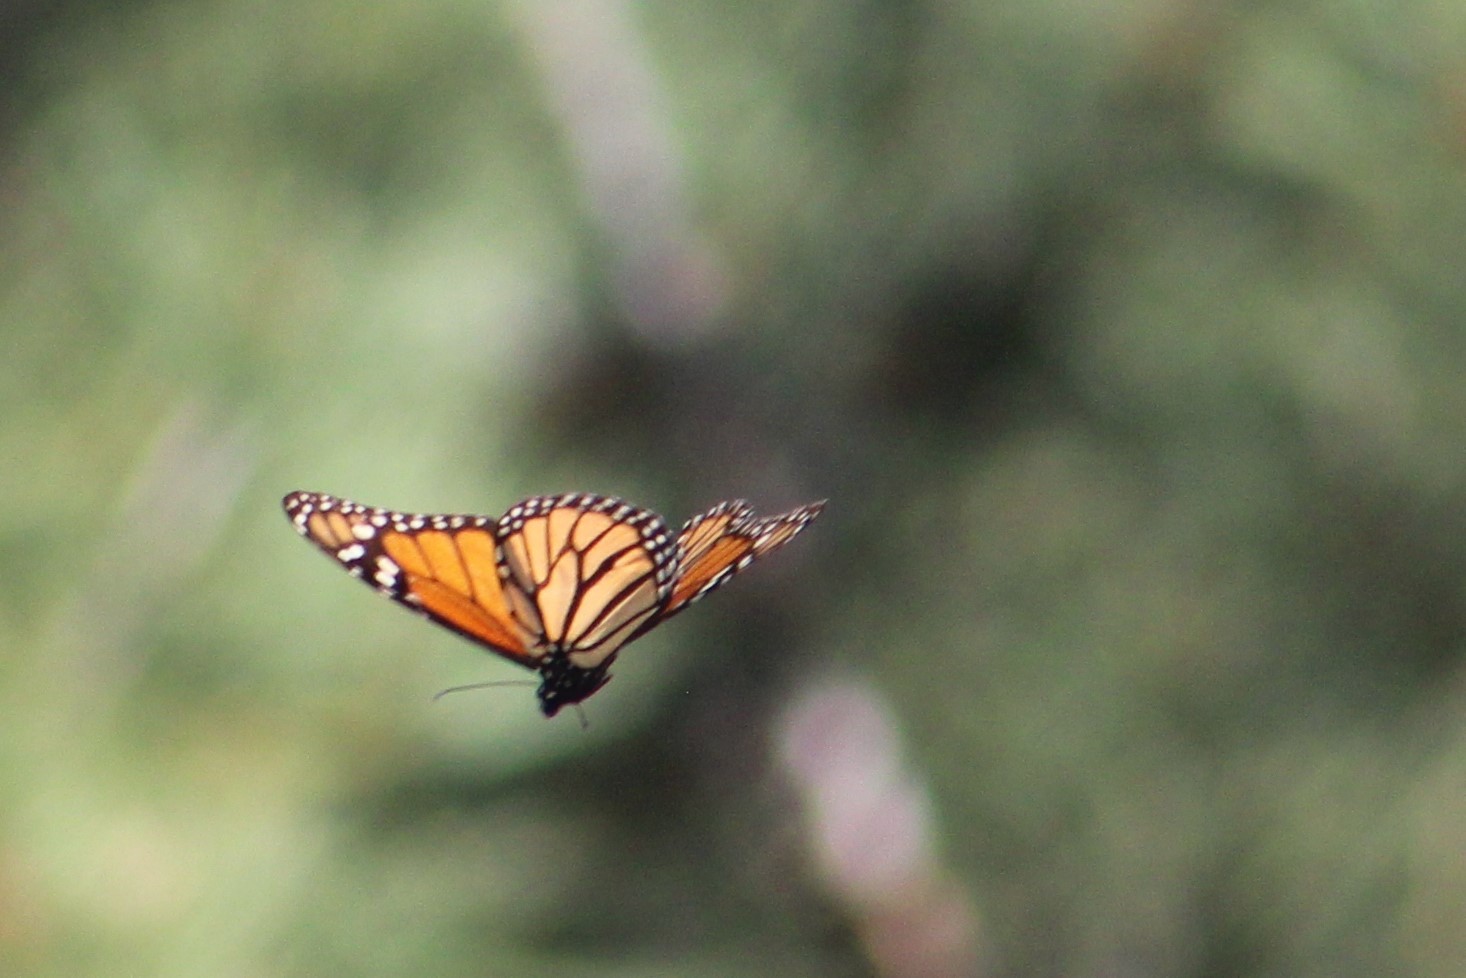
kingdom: Animalia
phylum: Arthropoda
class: Insecta
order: Lepidoptera
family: Nymphalidae
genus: Danaus
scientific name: Danaus plexippus
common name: Monarch
